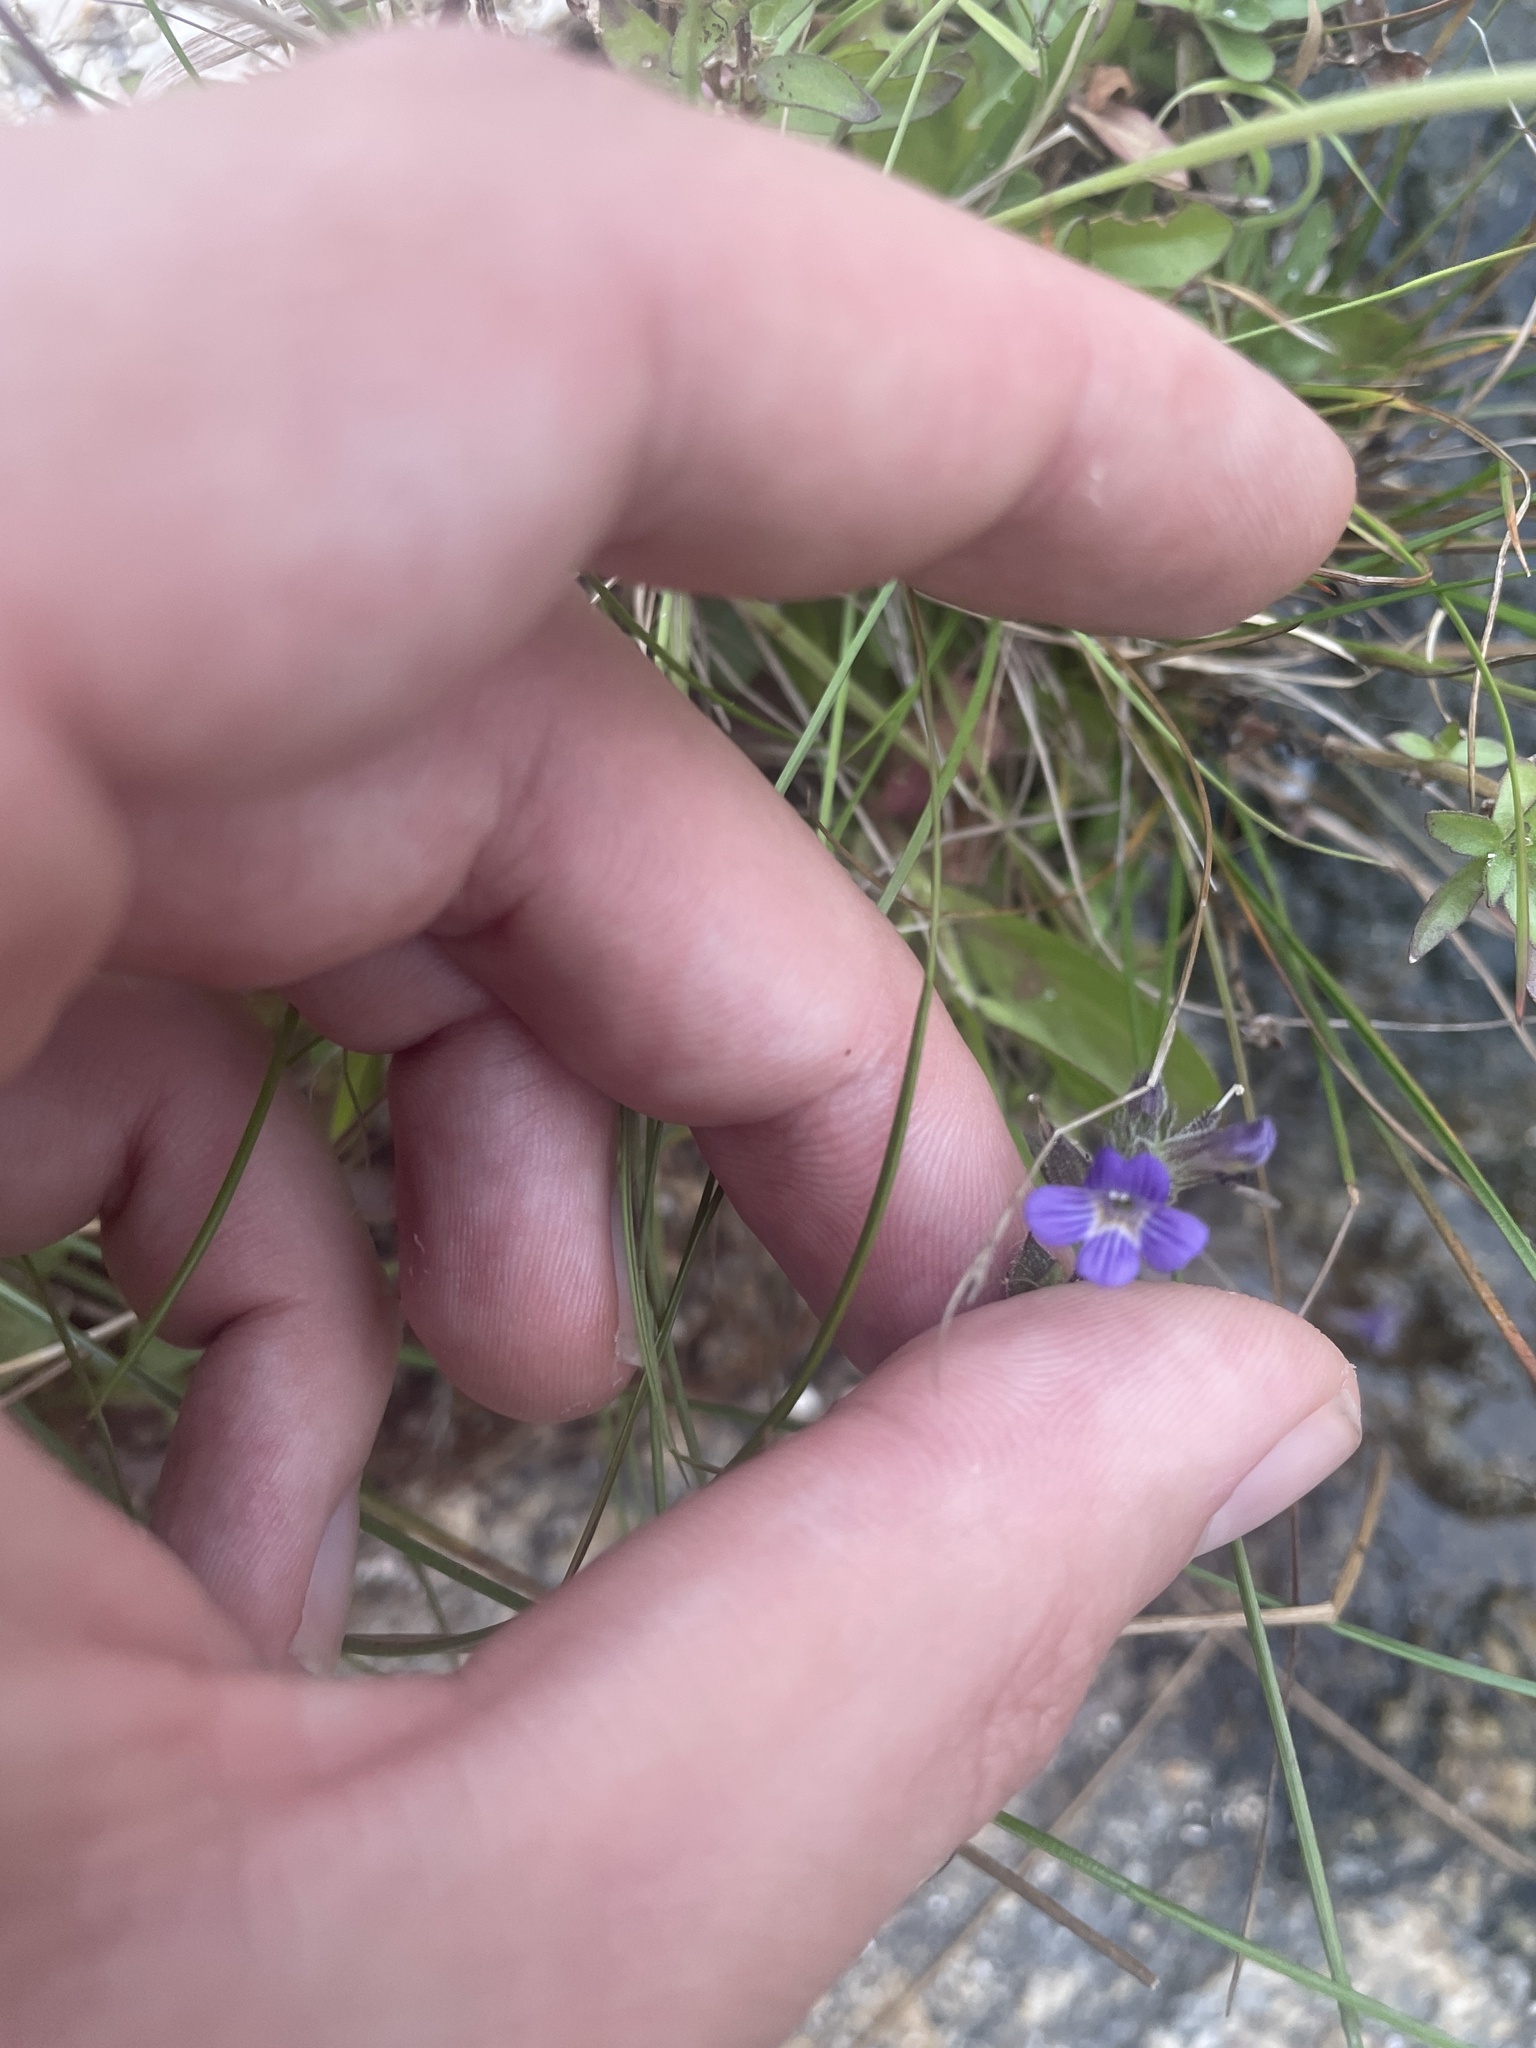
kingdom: Plantae
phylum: Tracheophyta
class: Magnoliopsida
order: Lamiales
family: Plantaginaceae
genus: Stemodia
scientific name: Stemodia durantifolia
